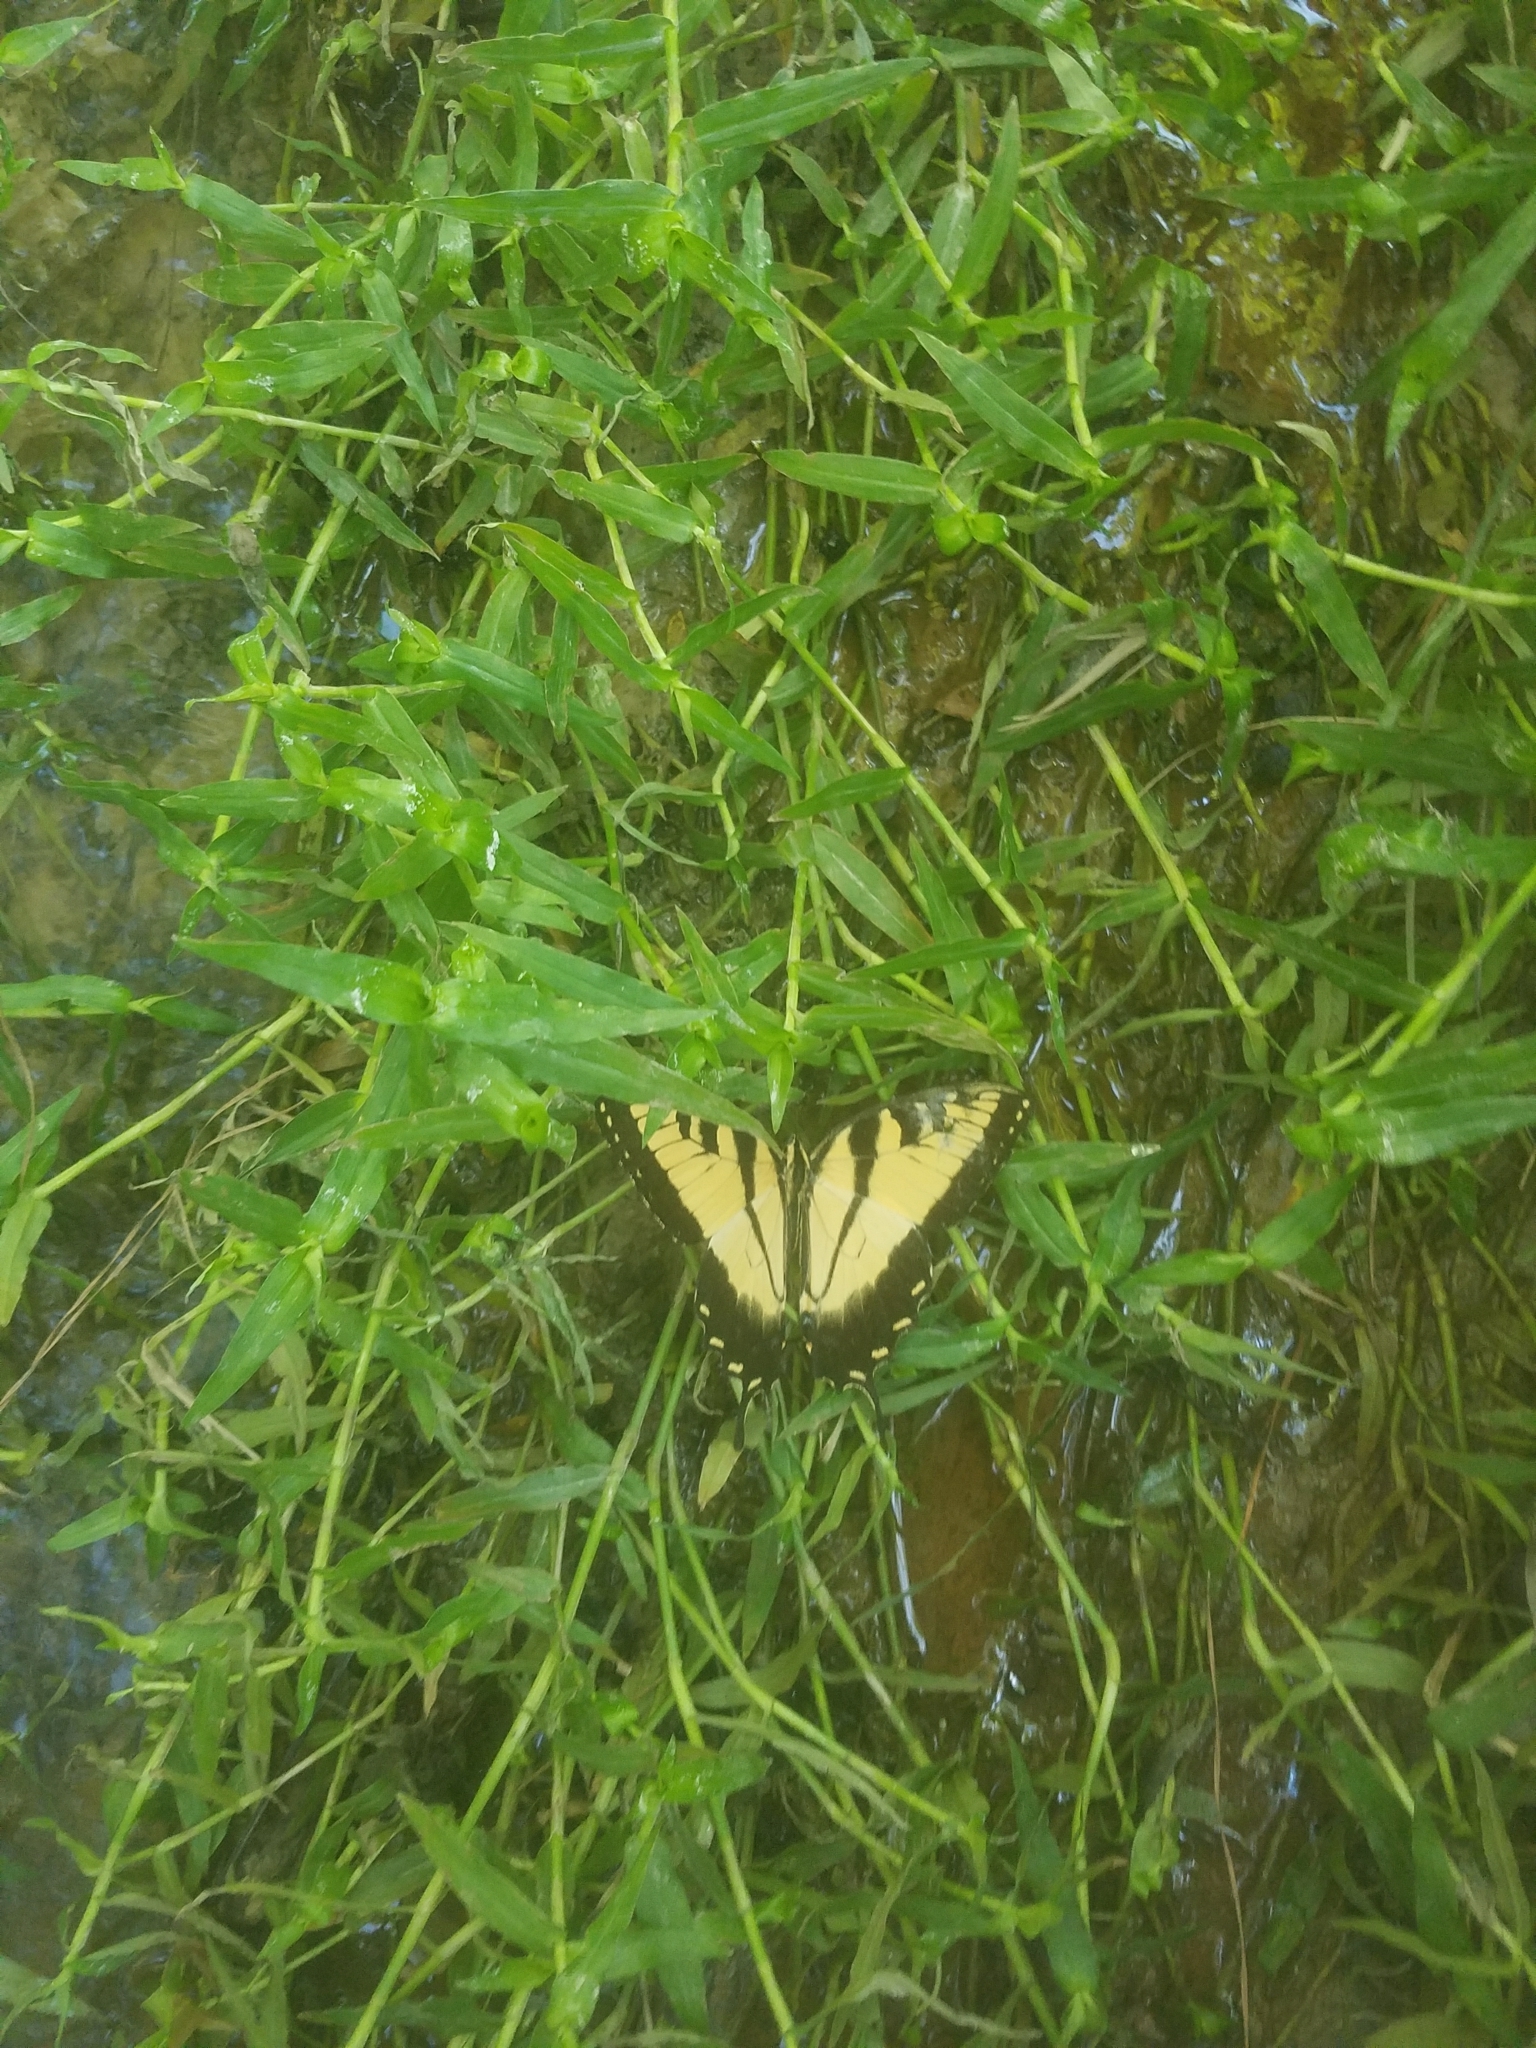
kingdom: Animalia
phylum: Arthropoda
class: Insecta
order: Lepidoptera
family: Papilionidae
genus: Papilio
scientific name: Papilio glaucus
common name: Tiger swallowtail
